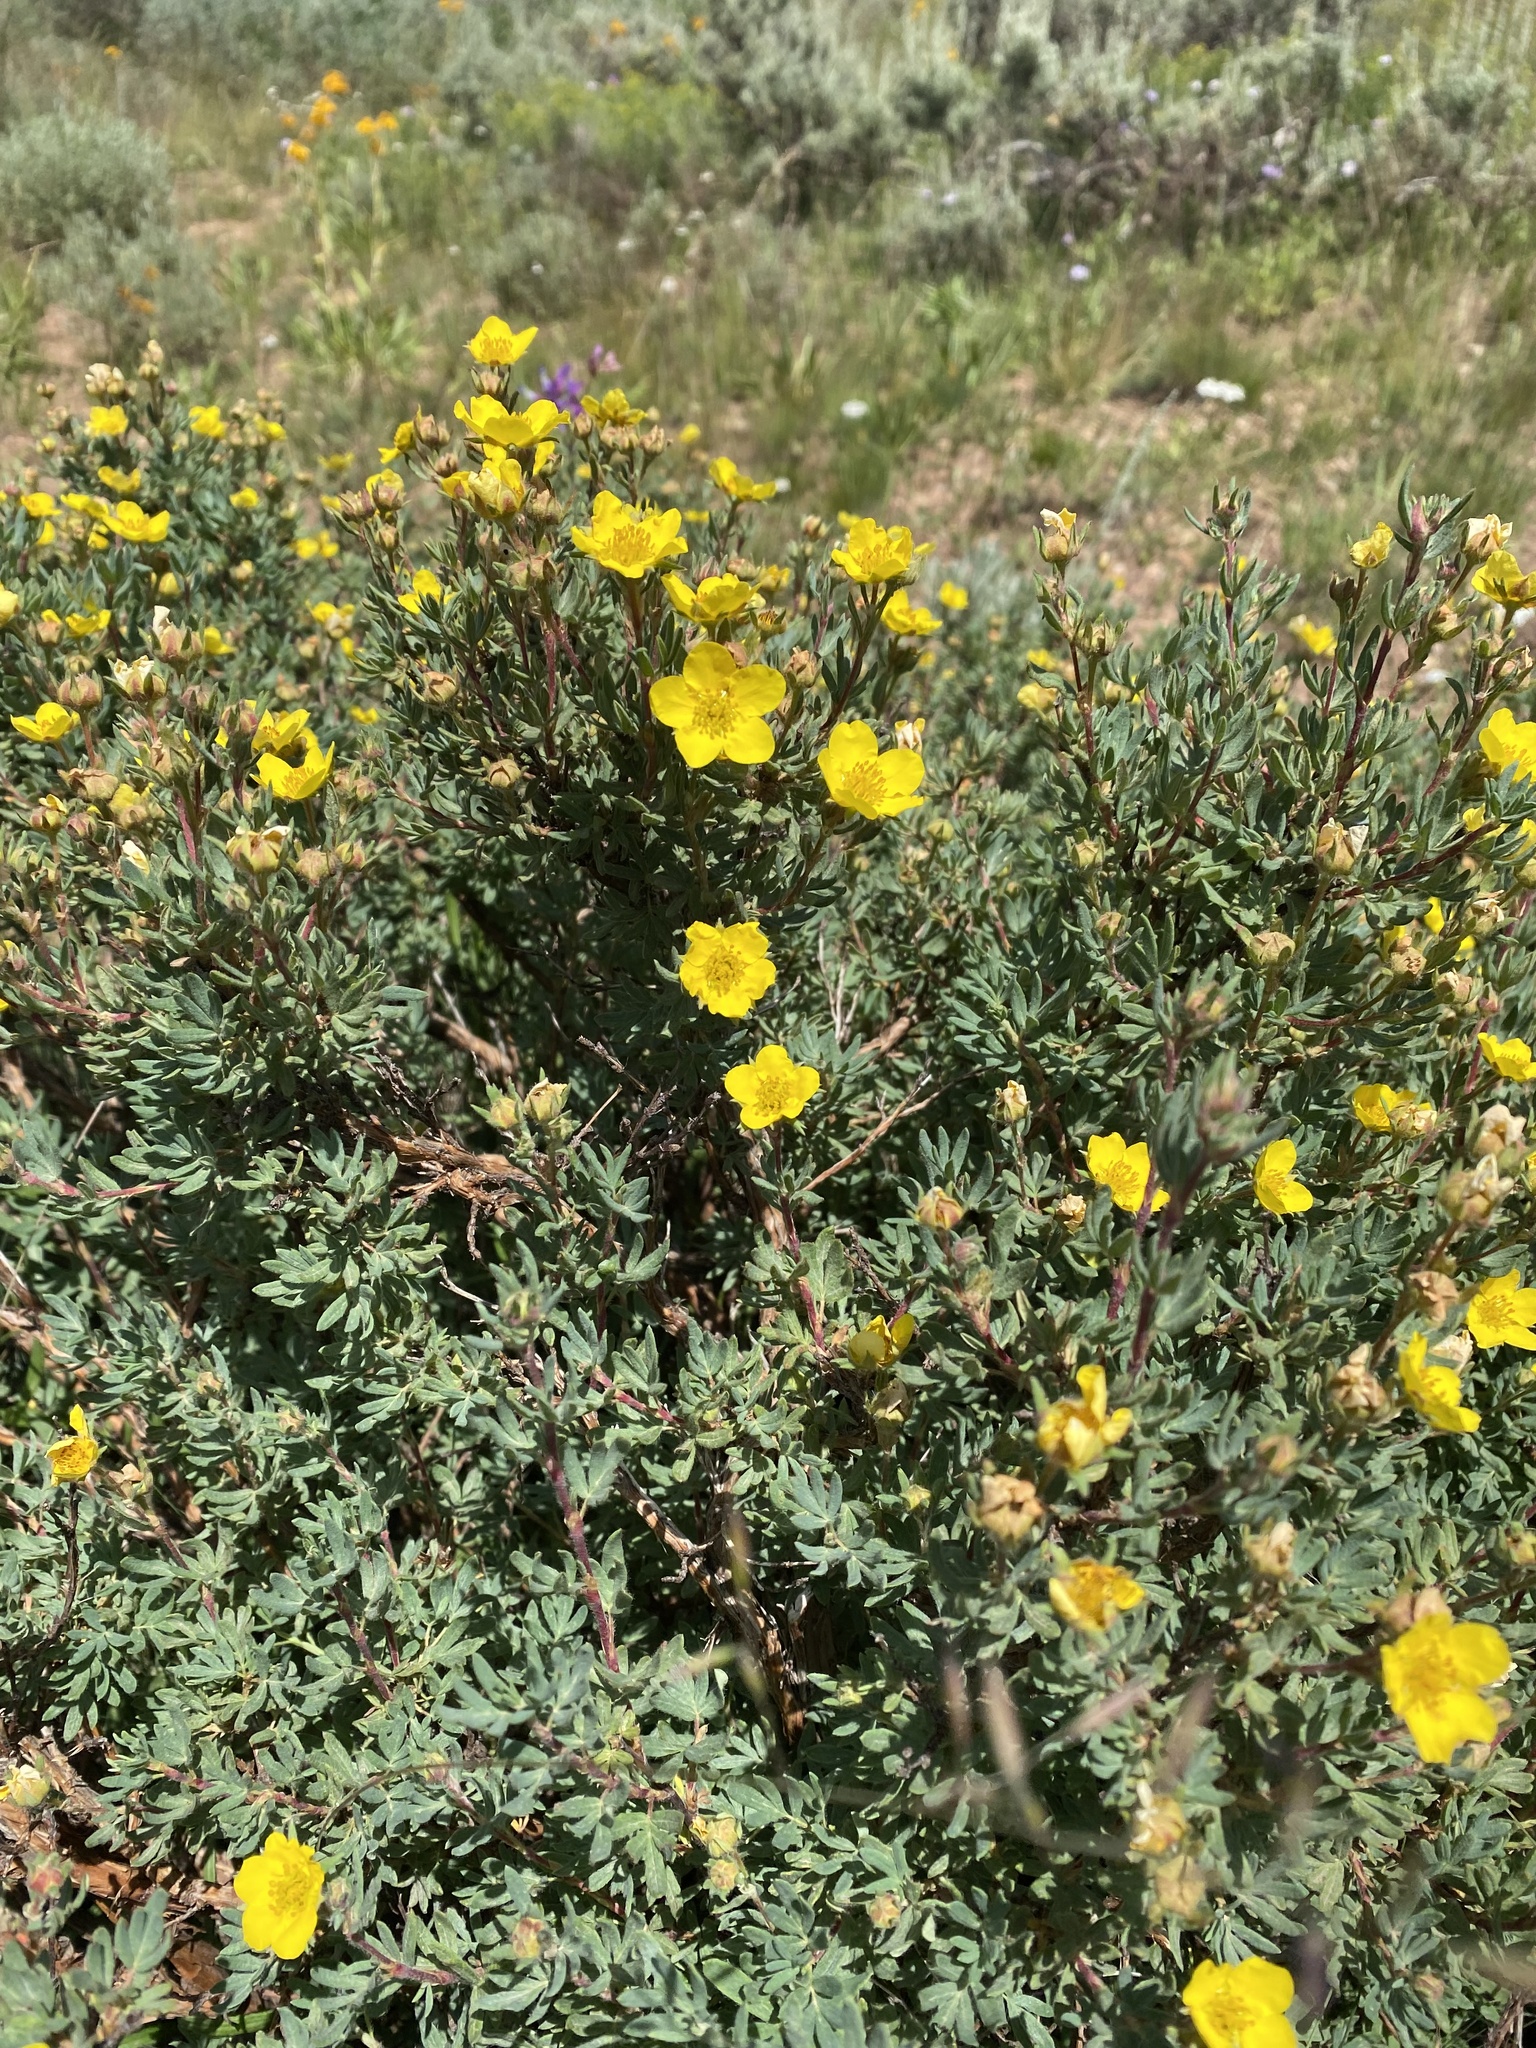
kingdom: Plantae
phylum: Tracheophyta
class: Magnoliopsida
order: Rosales
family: Rosaceae
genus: Dasiphora
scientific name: Dasiphora fruticosa
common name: Shrubby cinquefoil
